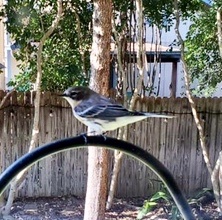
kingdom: Animalia
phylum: Chordata
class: Aves
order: Passeriformes
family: Parulidae
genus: Setophaga
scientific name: Setophaga coronata
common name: Myrtle warbler
